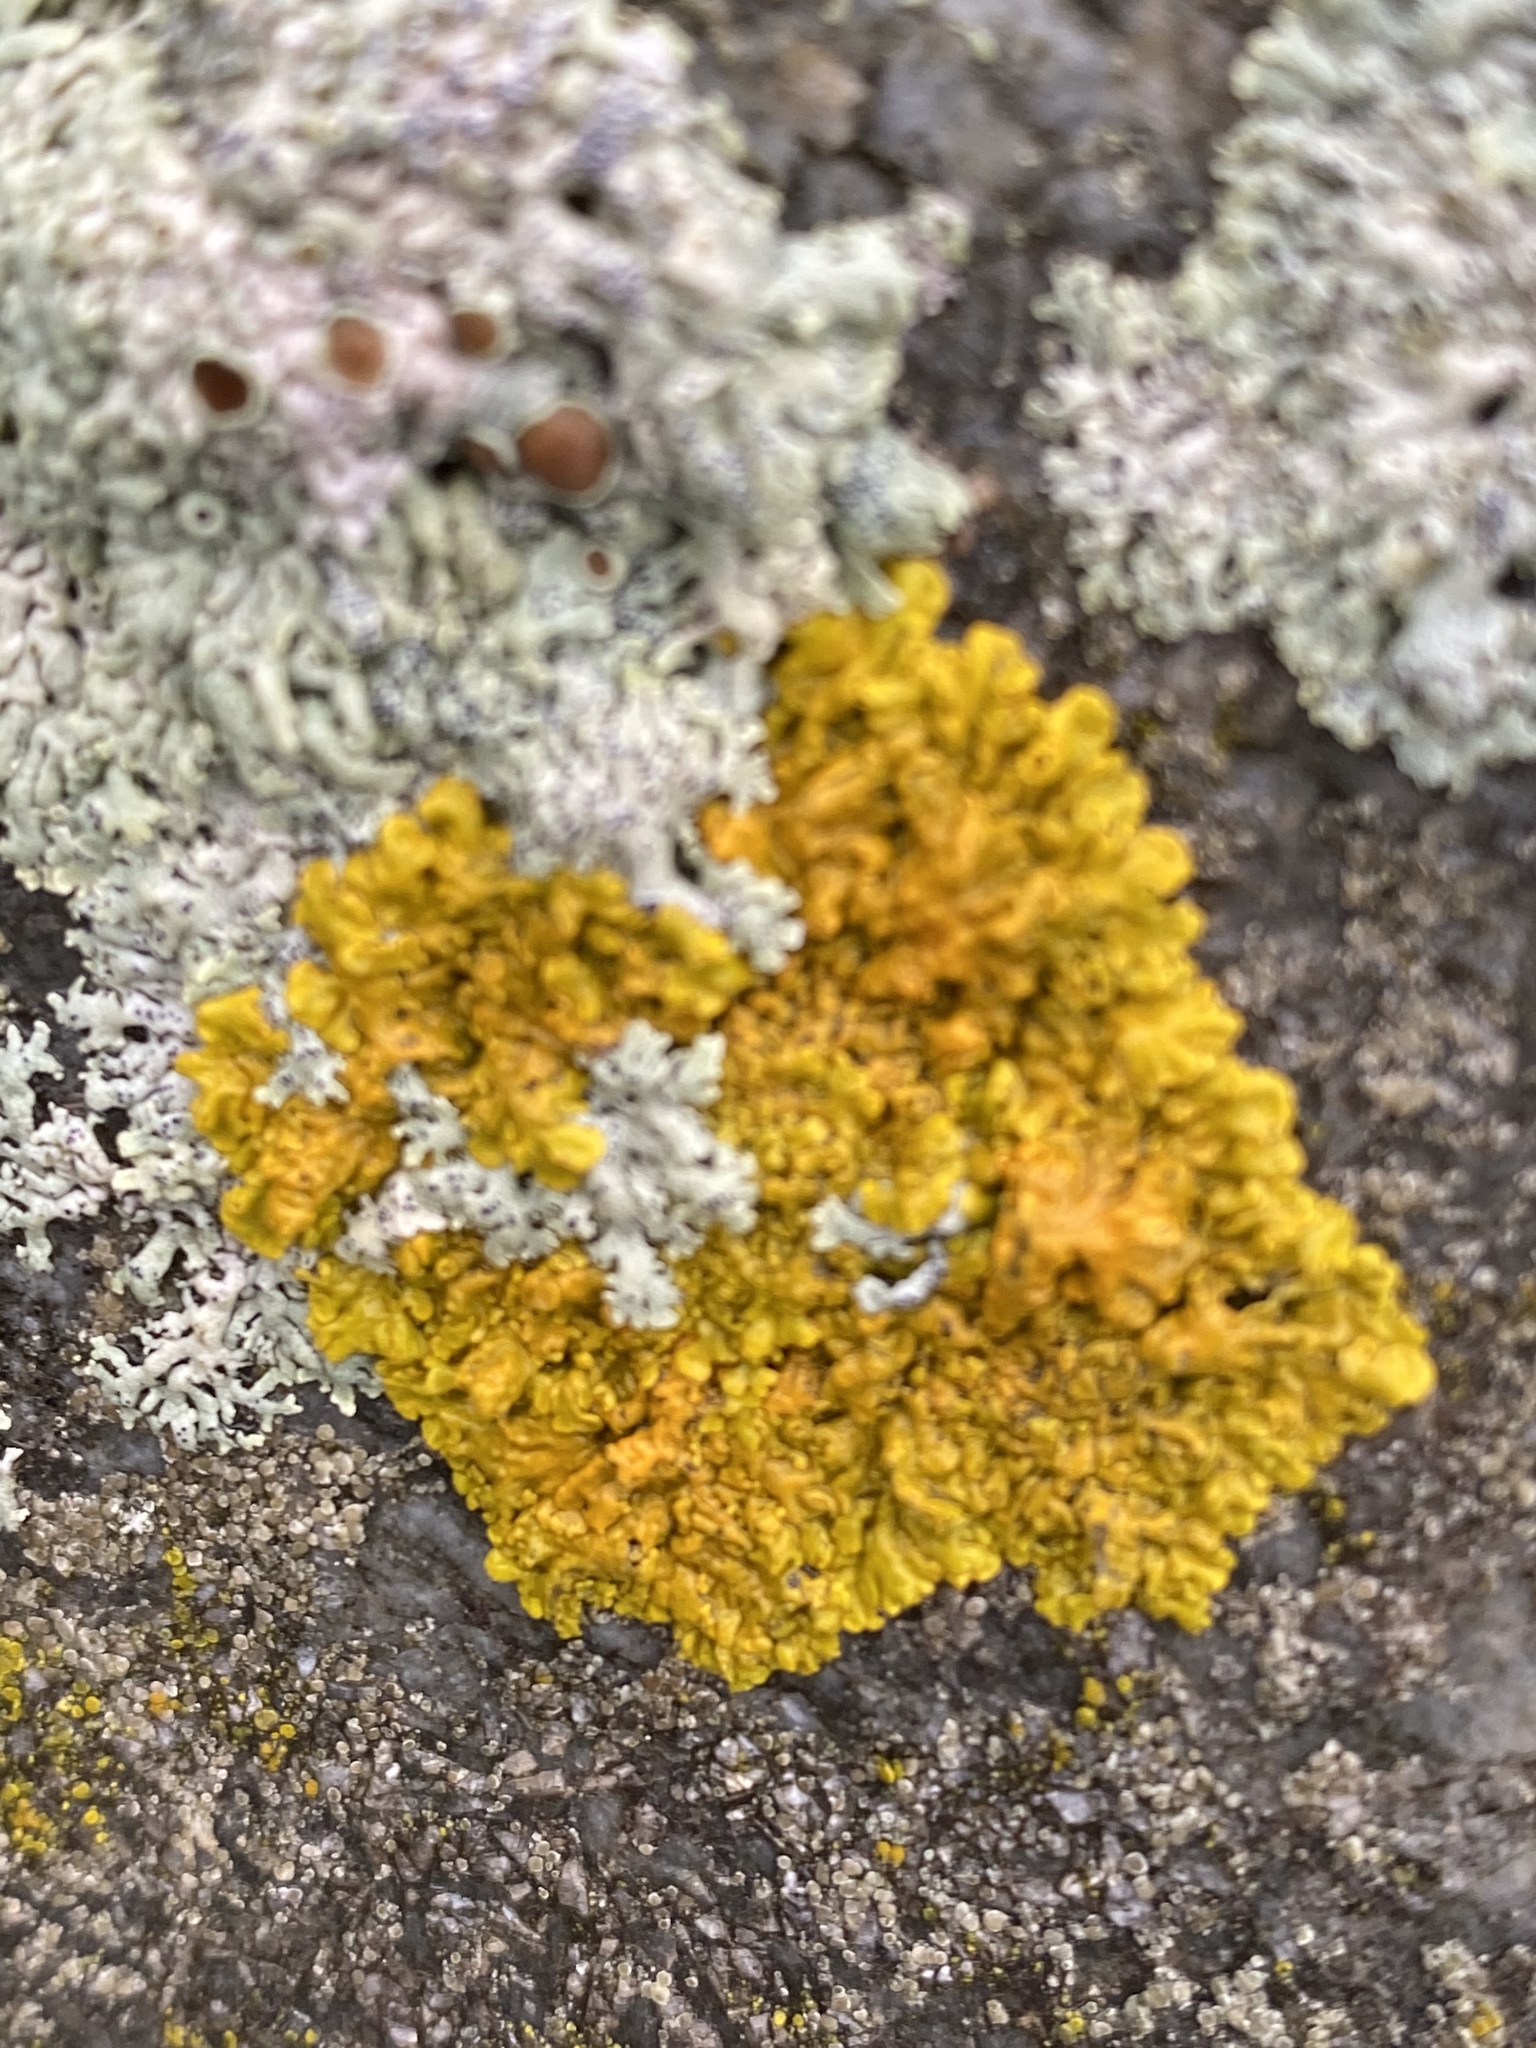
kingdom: Fungi
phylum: Ascomycota
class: Lecanoromycetes
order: Teloschistales
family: Teloschistaceae
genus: Xanthoria
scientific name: Xanthoria parietina
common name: Common orange lichen
